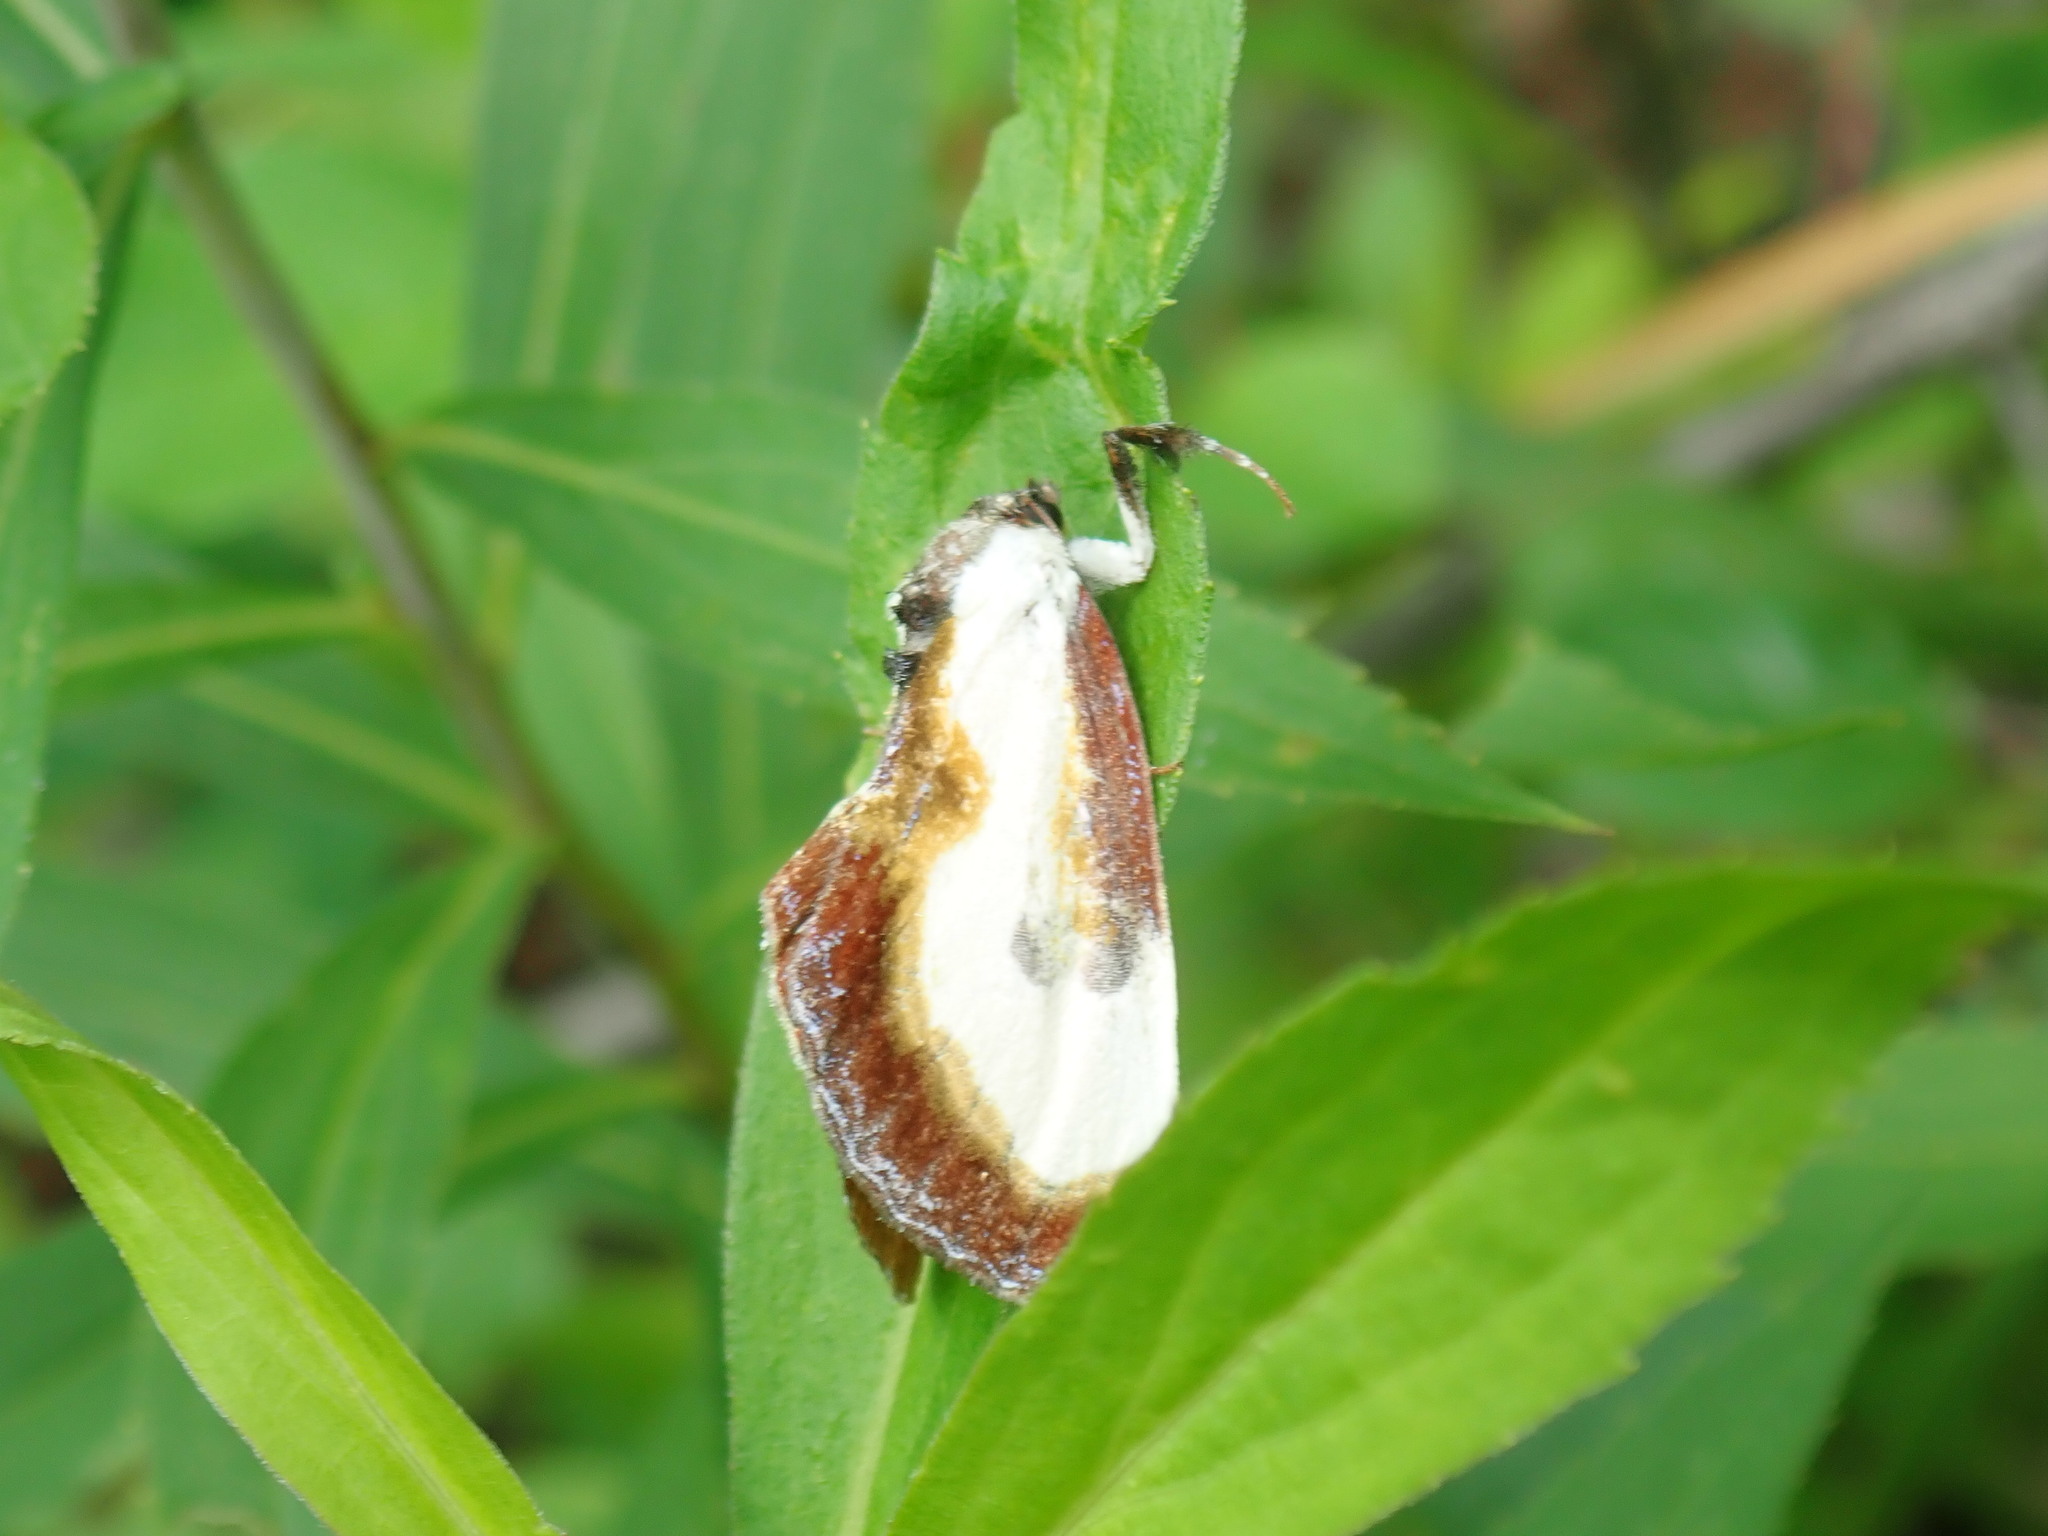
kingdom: Animalia
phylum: Arthropoda
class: Insecta
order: Lepidoptera
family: Noctuidae
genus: Eudryas
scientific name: Eudryas grata
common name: Beautiful wood-nymph
